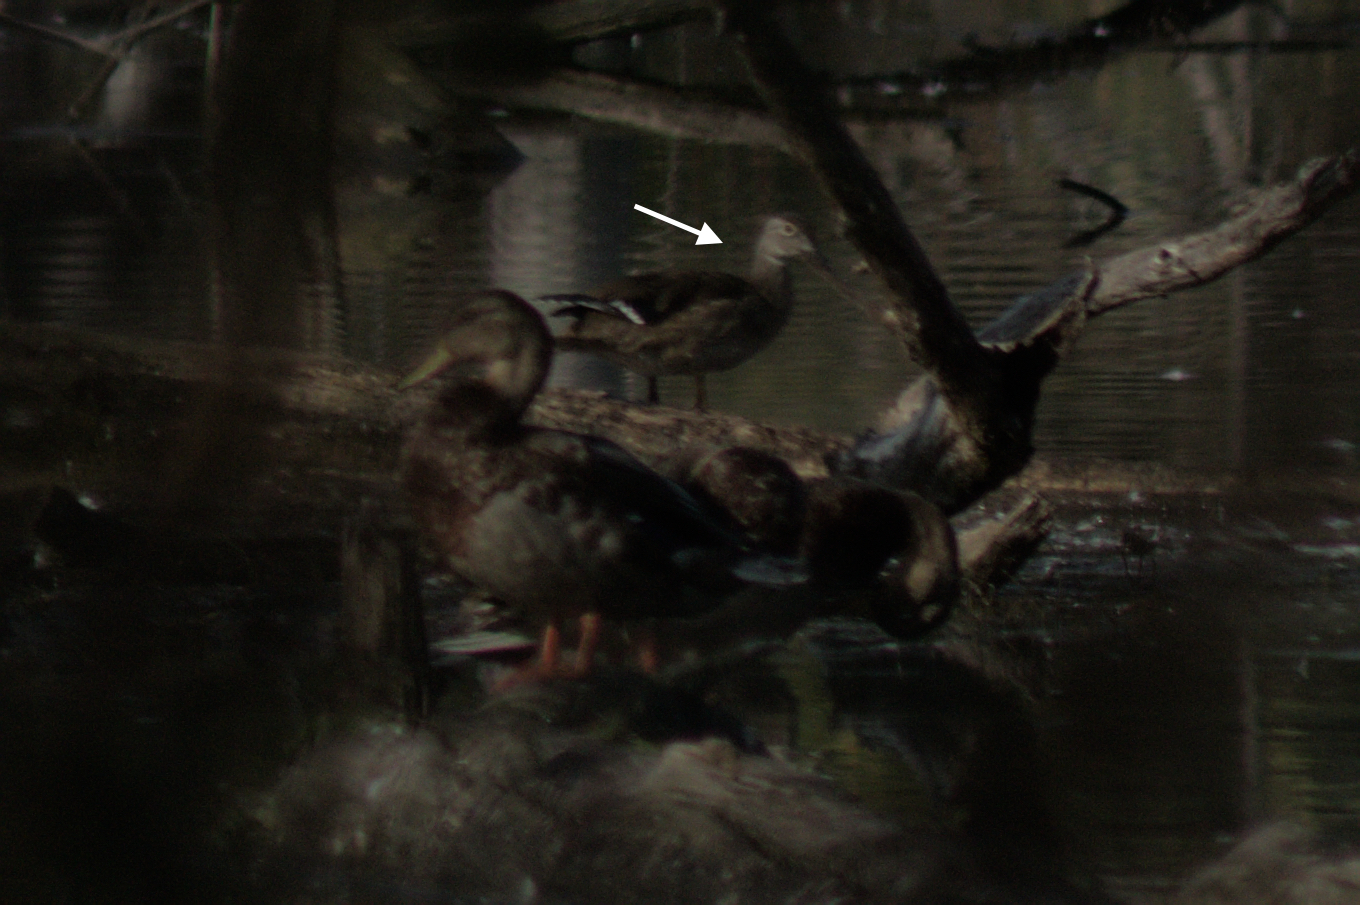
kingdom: Animalia
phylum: Chordata
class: Aves
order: Anseriformes
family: Anatidae
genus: Aix
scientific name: Aix sponsa
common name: Wood duck
